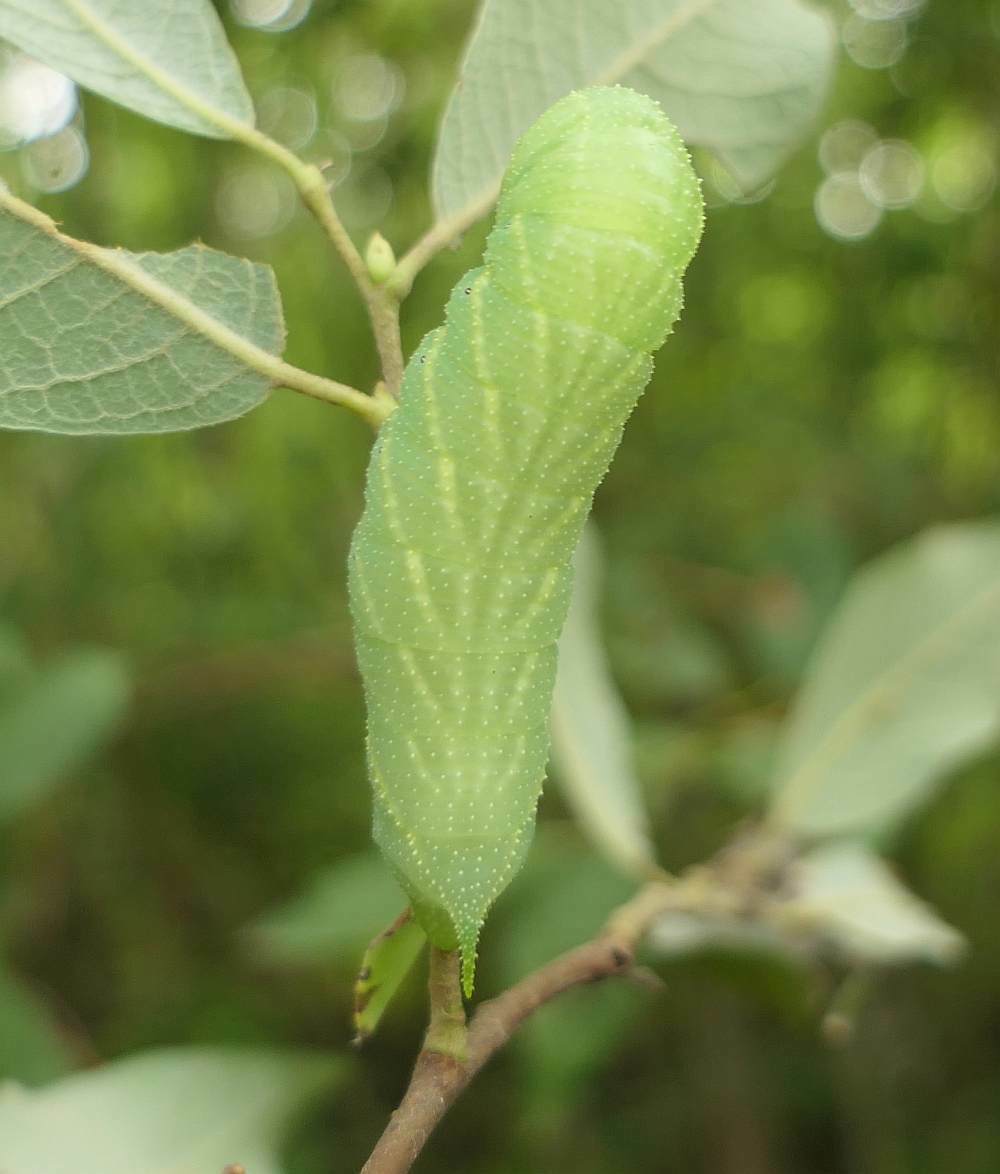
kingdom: Animalia
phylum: Arthropoda
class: Insecta
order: Lepidoptera
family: Sphingidae
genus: Paonias
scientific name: Paonias excaecata
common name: Blind-eyed sphinx
